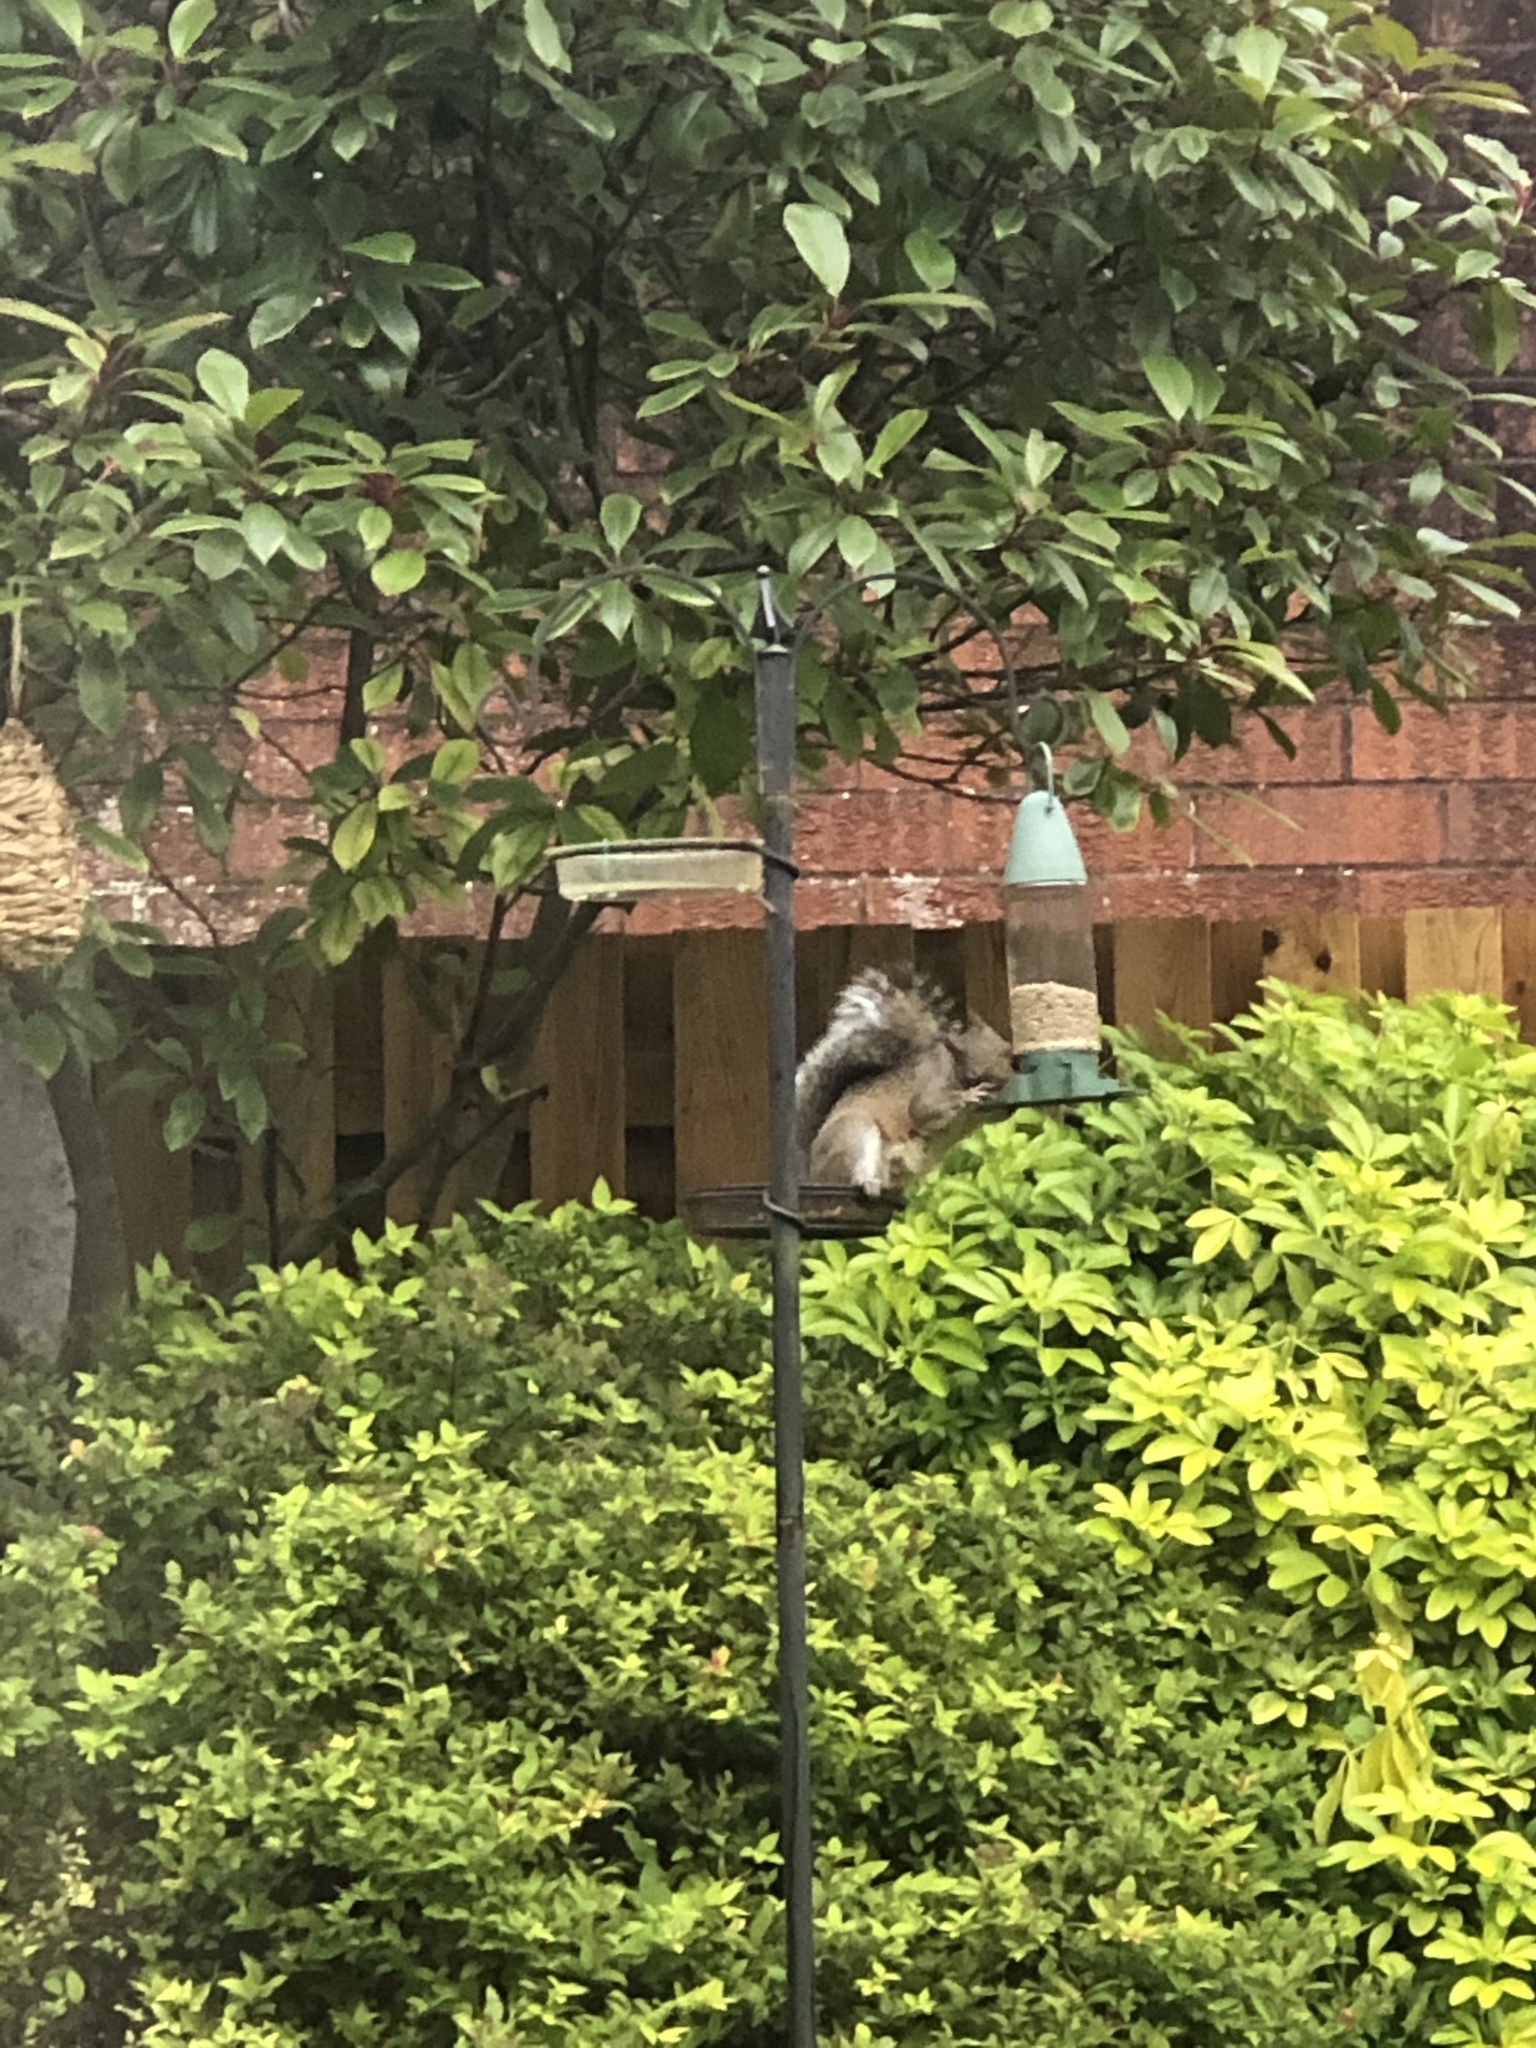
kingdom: Animalia
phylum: Chordata
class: Mammalia
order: Rodentia
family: Sciuridae
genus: Sciurus
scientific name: Sciurus carolinensis
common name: Eastern gray squirrel
